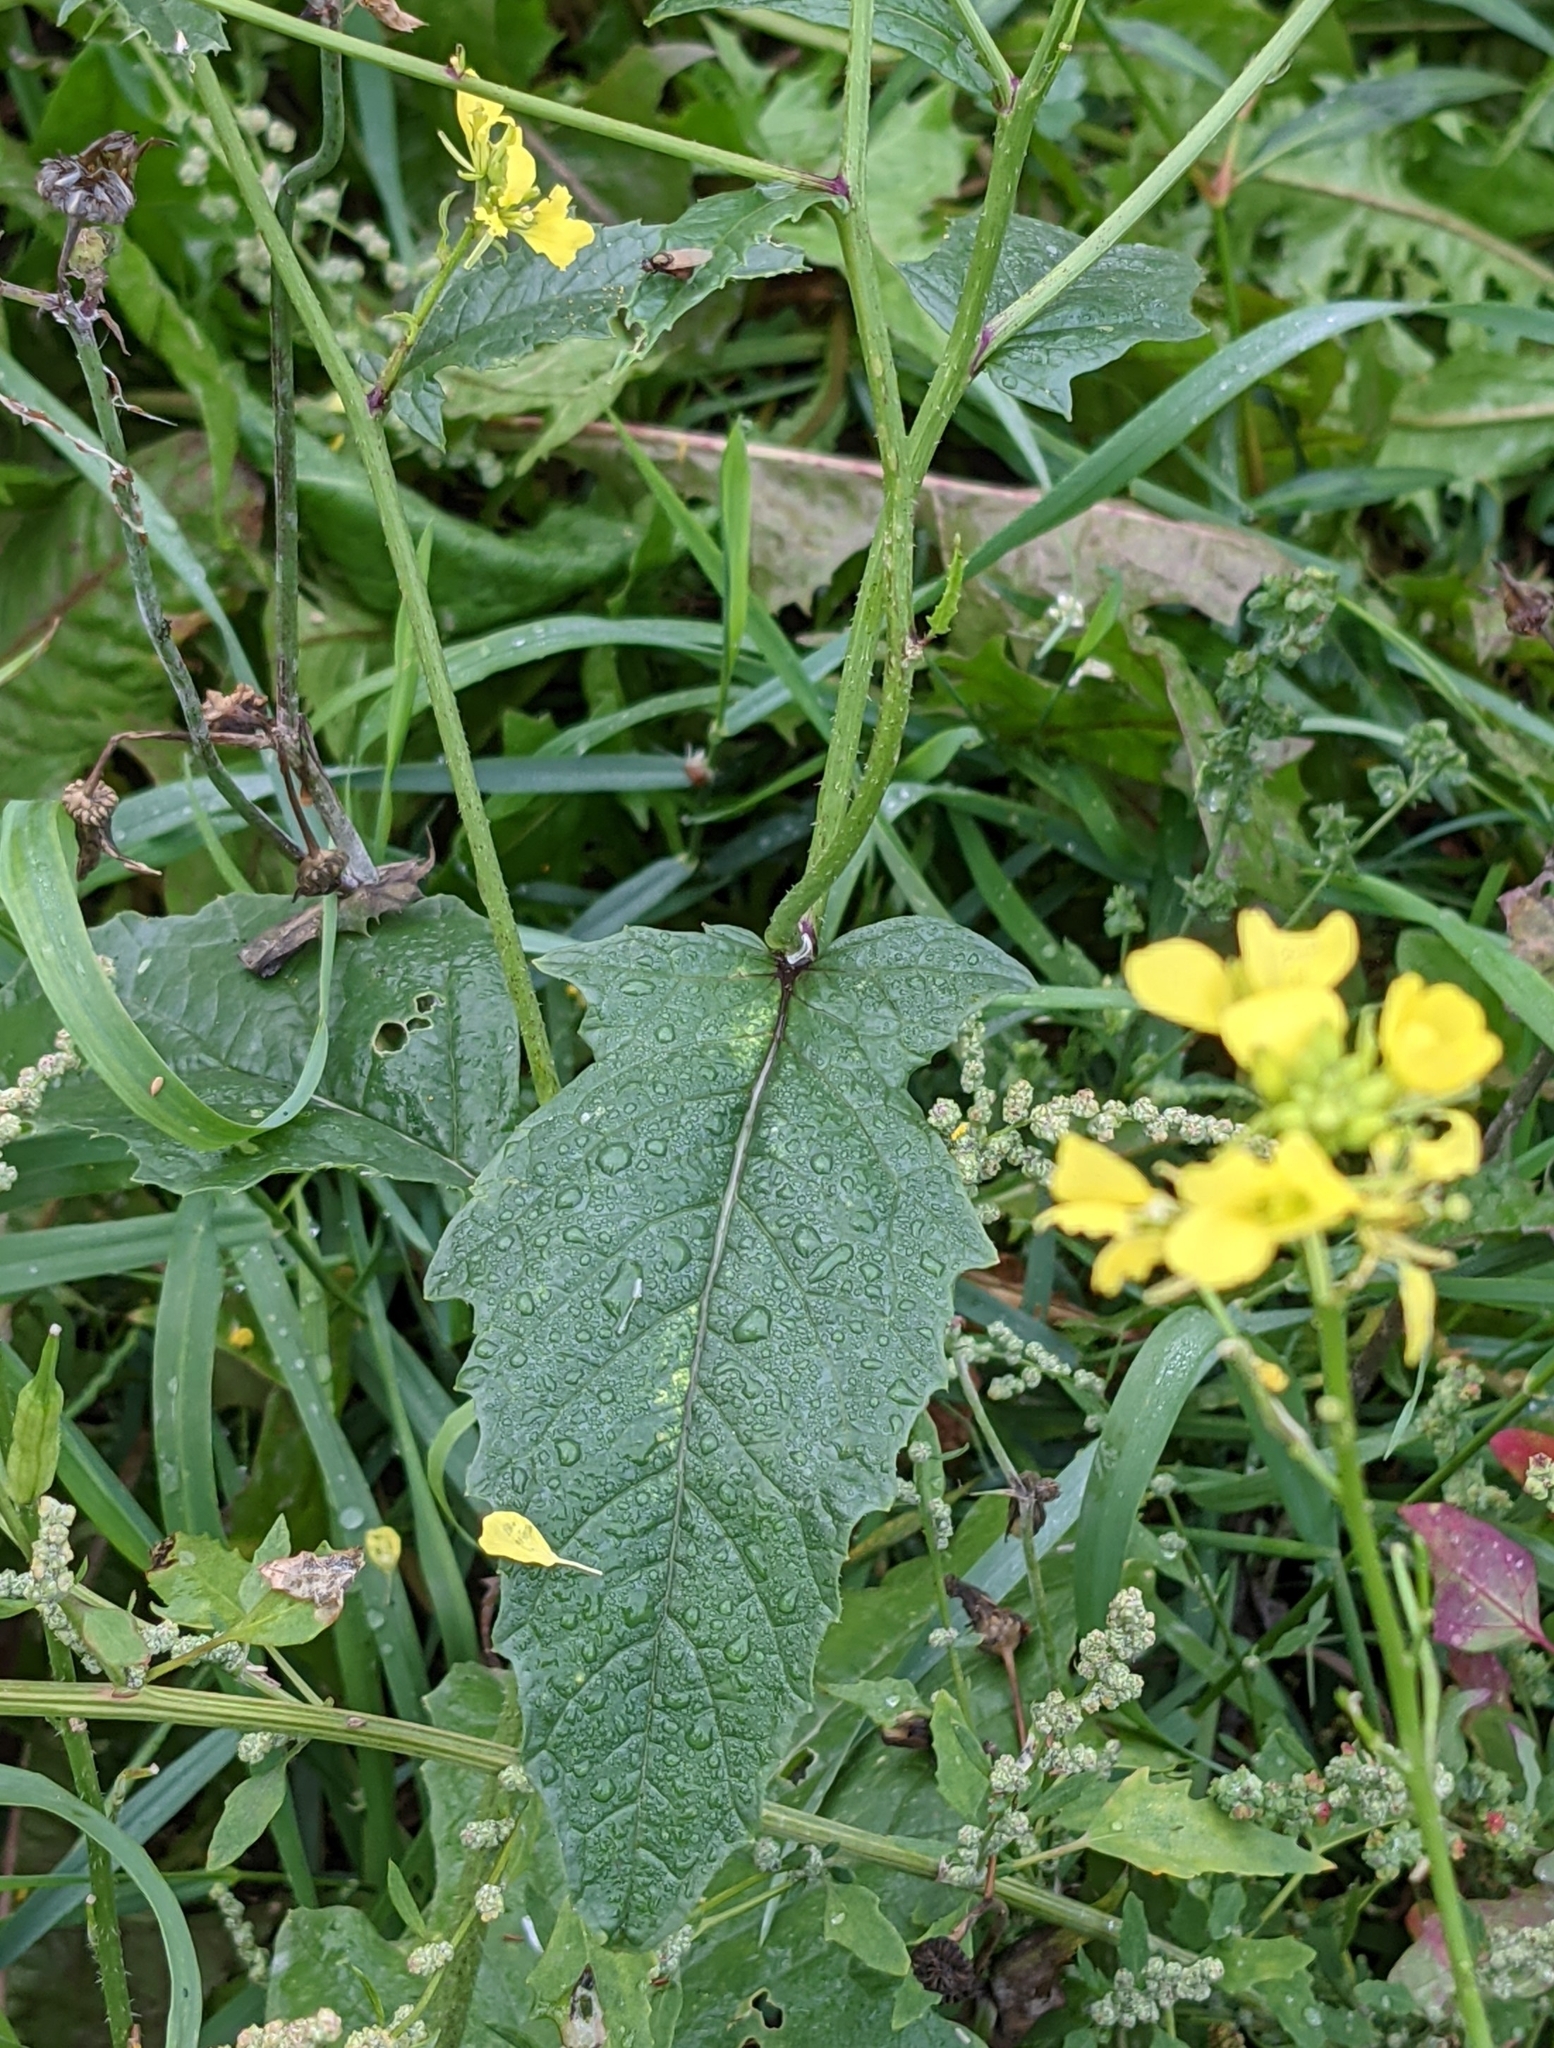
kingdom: Plantae
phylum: Tracheophyta
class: Magnoliopsida
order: Brassicales
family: Brassicaceae
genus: Sinapis
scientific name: Sinapis arvensis
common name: Charlock
